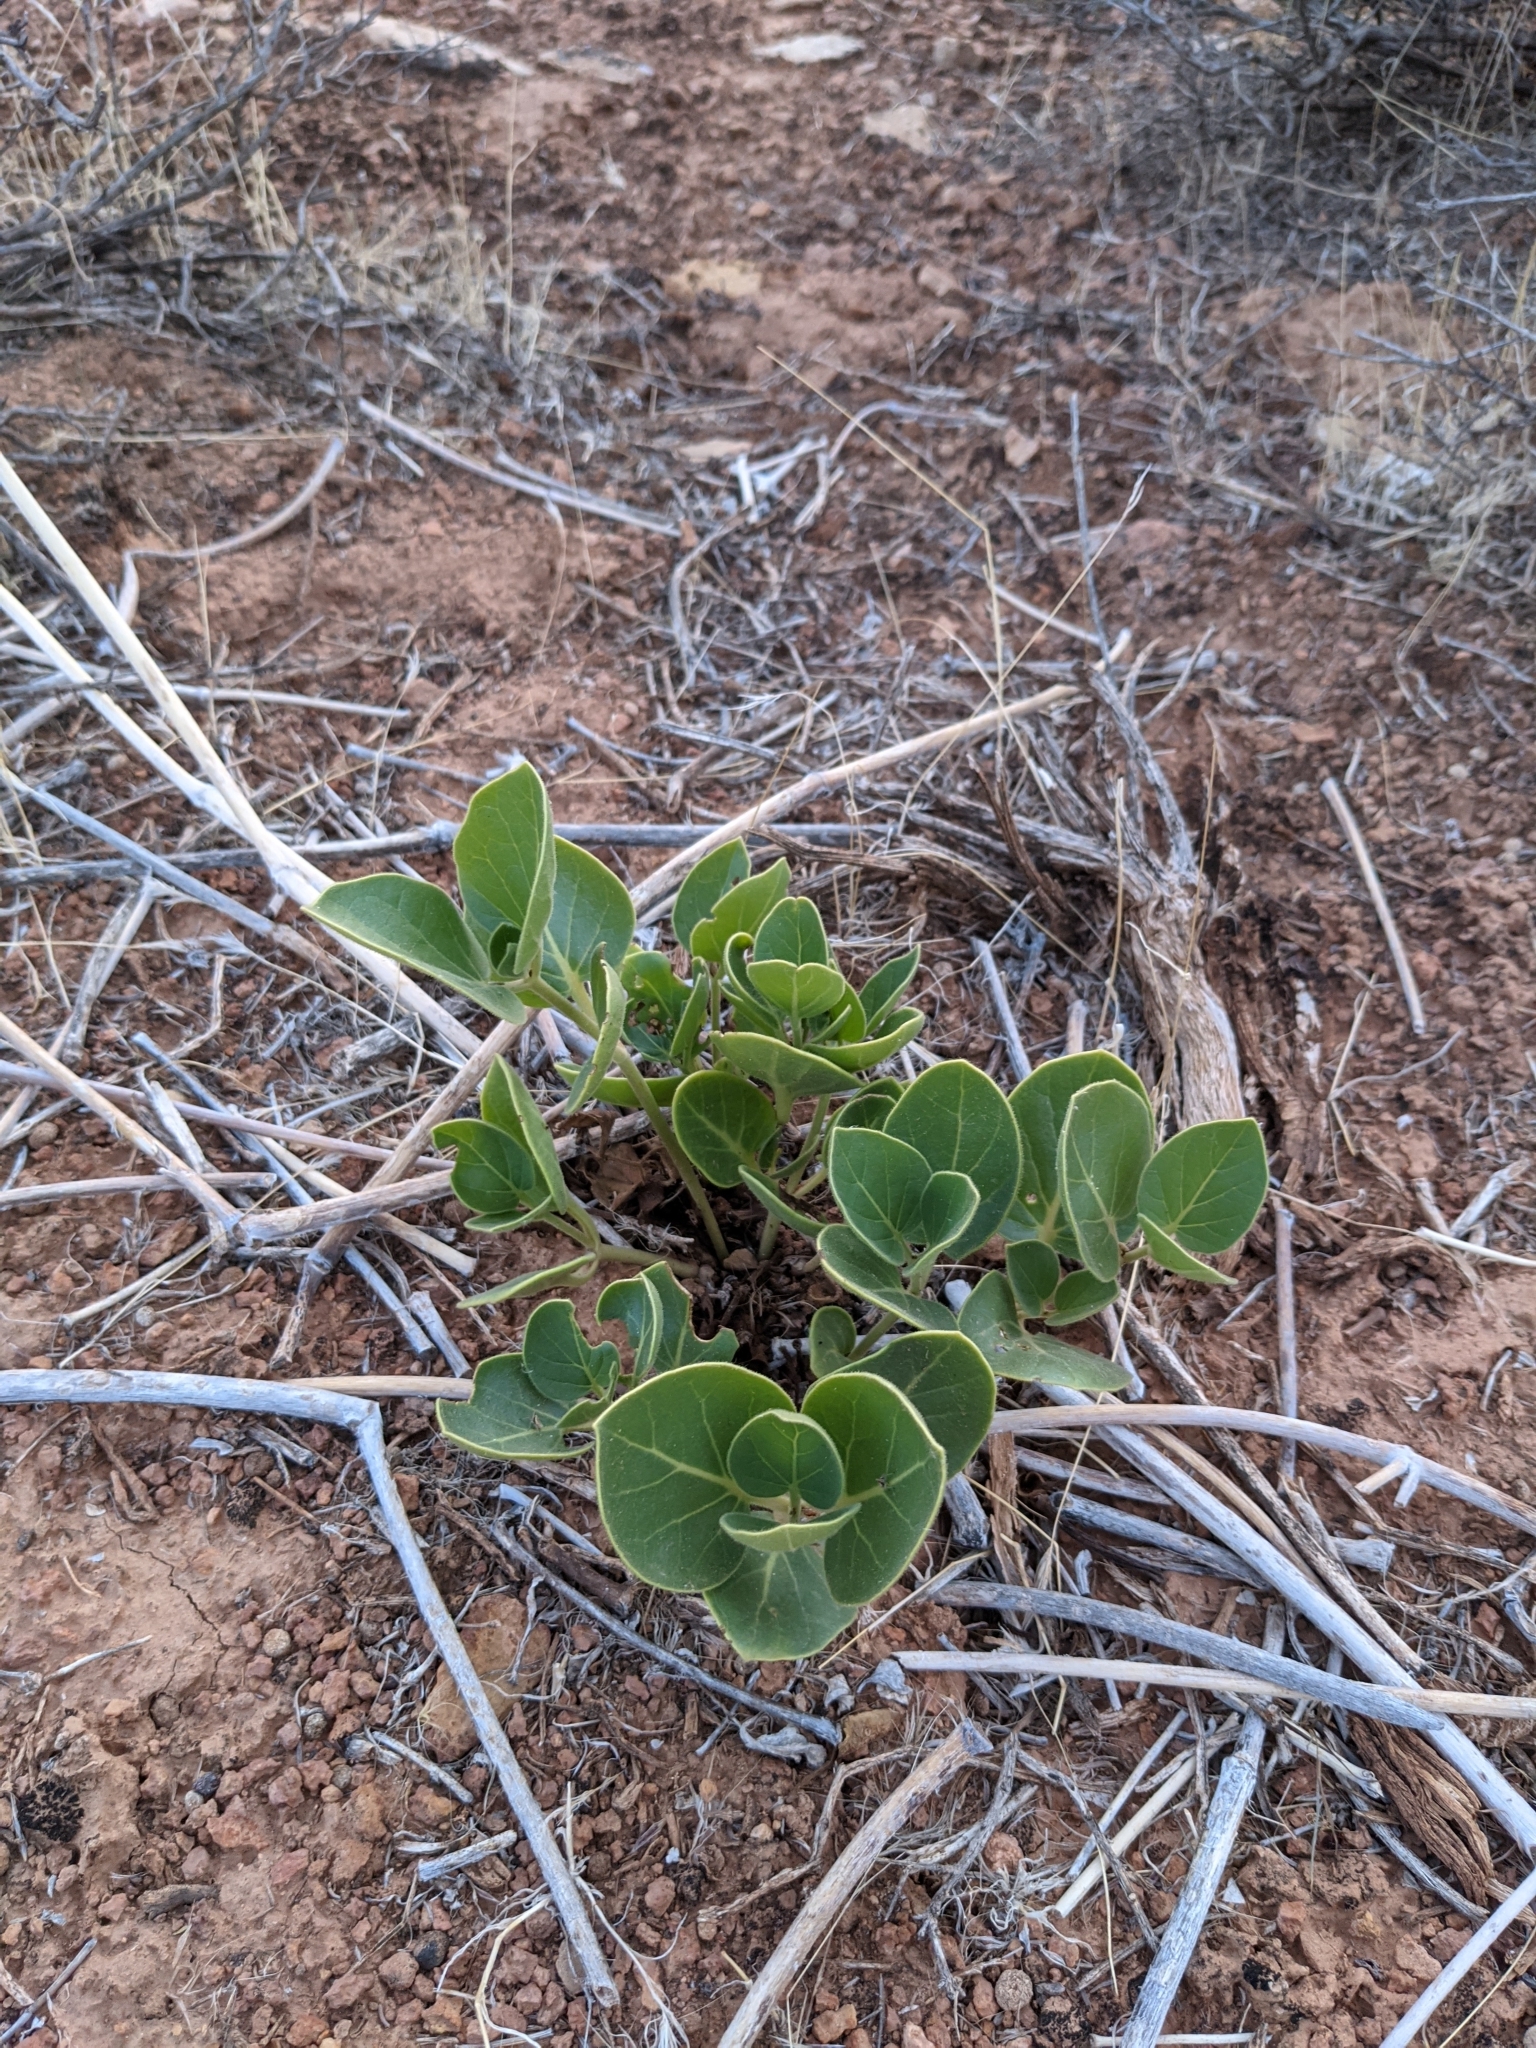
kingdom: Plantae
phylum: Tracheophyta
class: Magnoliopsida
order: Caryophyllales
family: Nyctaginaceae
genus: Mirabilis
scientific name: Mirabilis multiflora
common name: Froebel's four-o'clock
